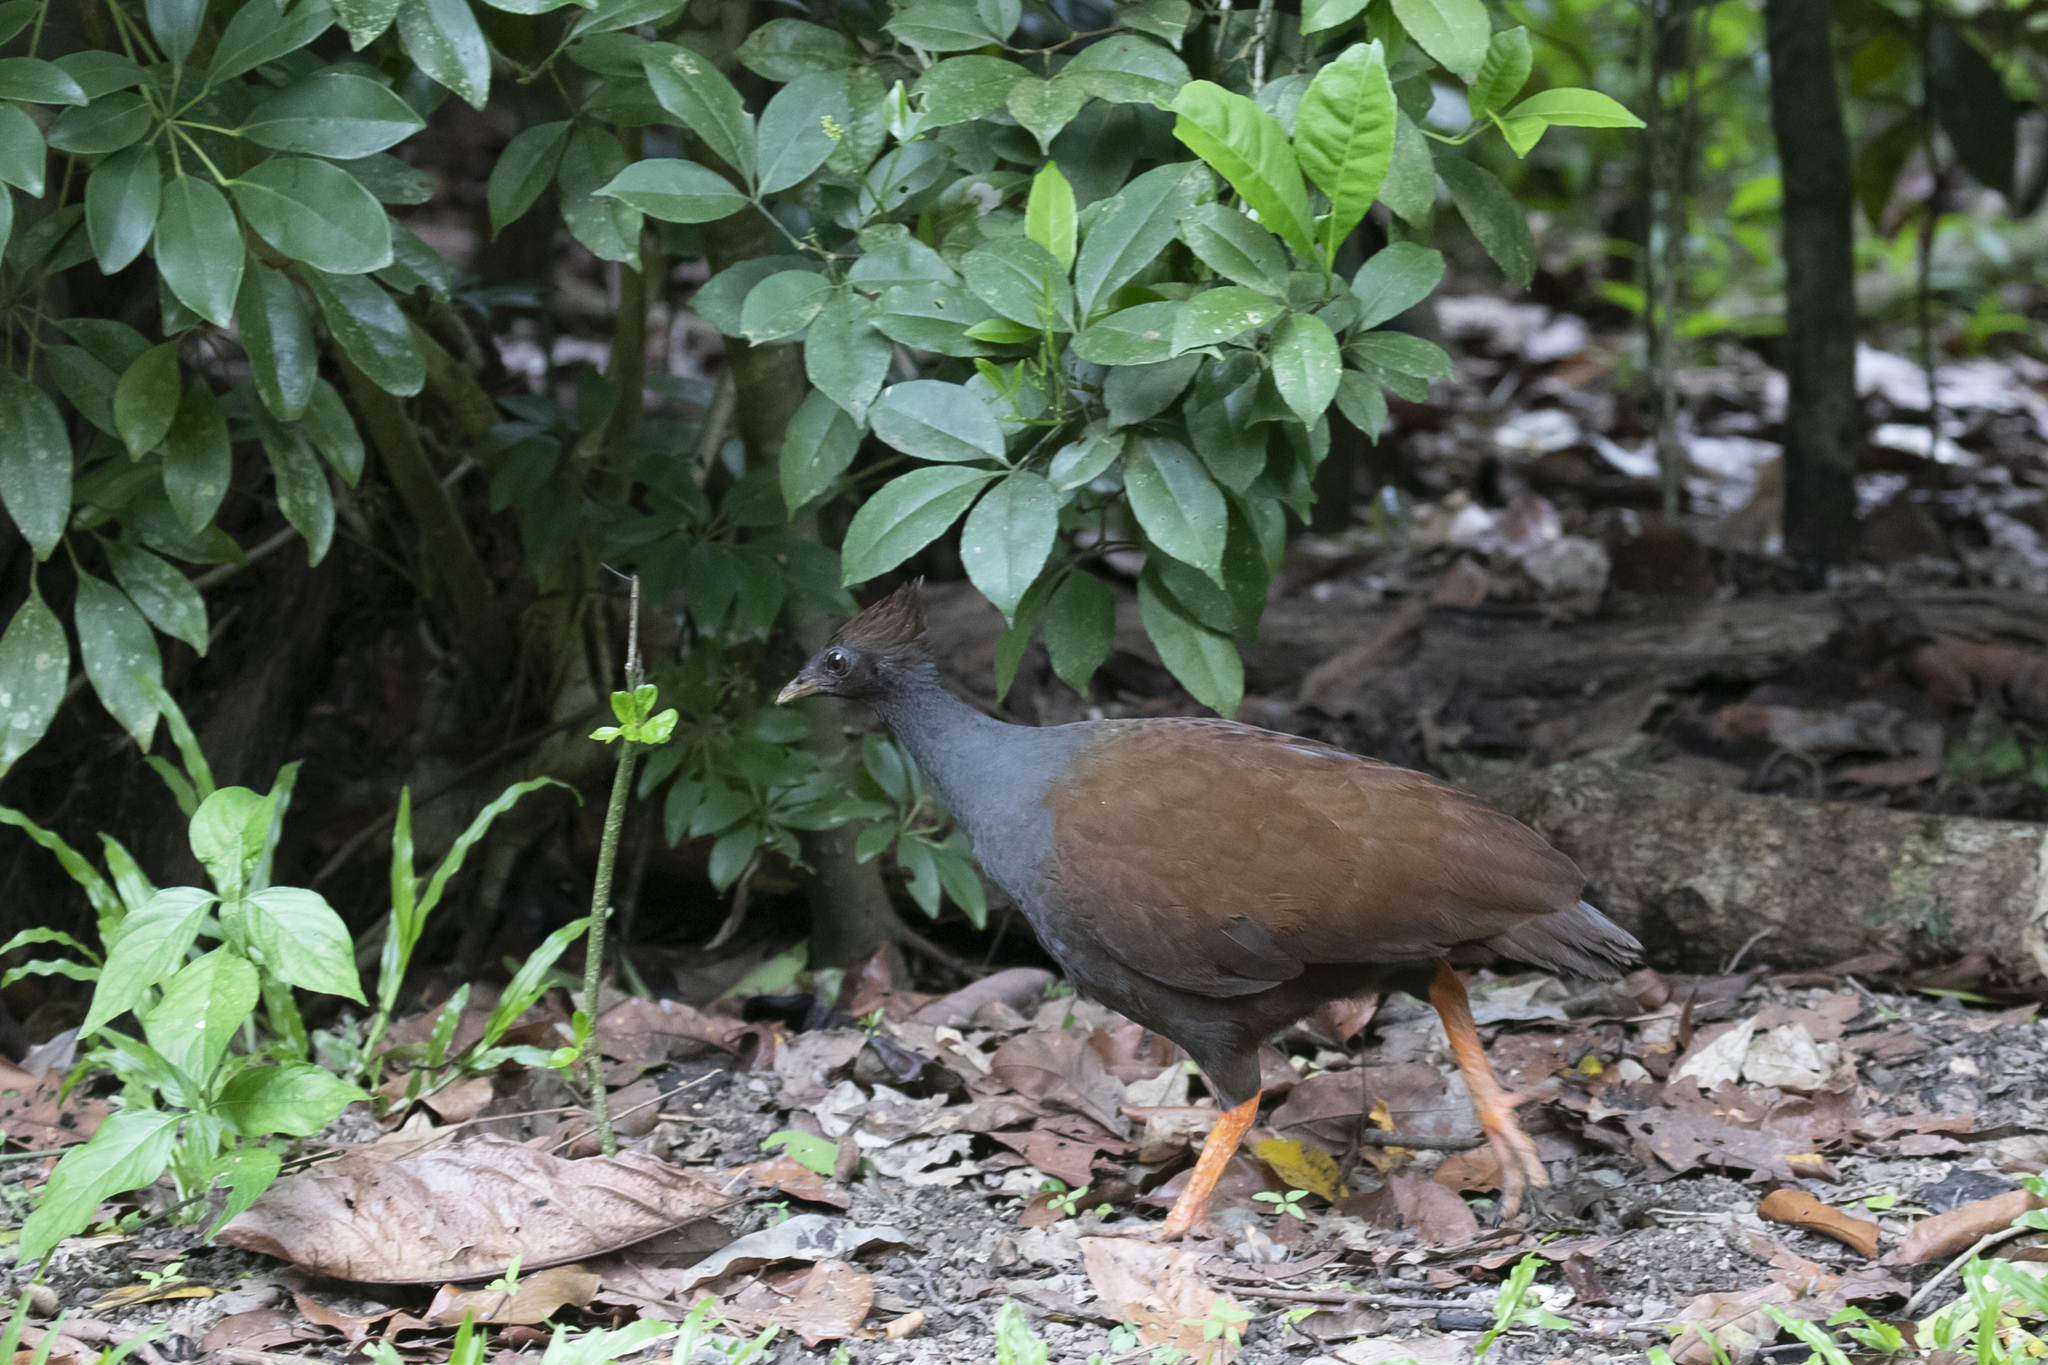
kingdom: Animalia
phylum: Chordata
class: Aves
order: Galliformes
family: Megapodiidae
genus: Megapodius
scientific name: Megapodius reinwardt
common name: Orange-footed scrubfowl
